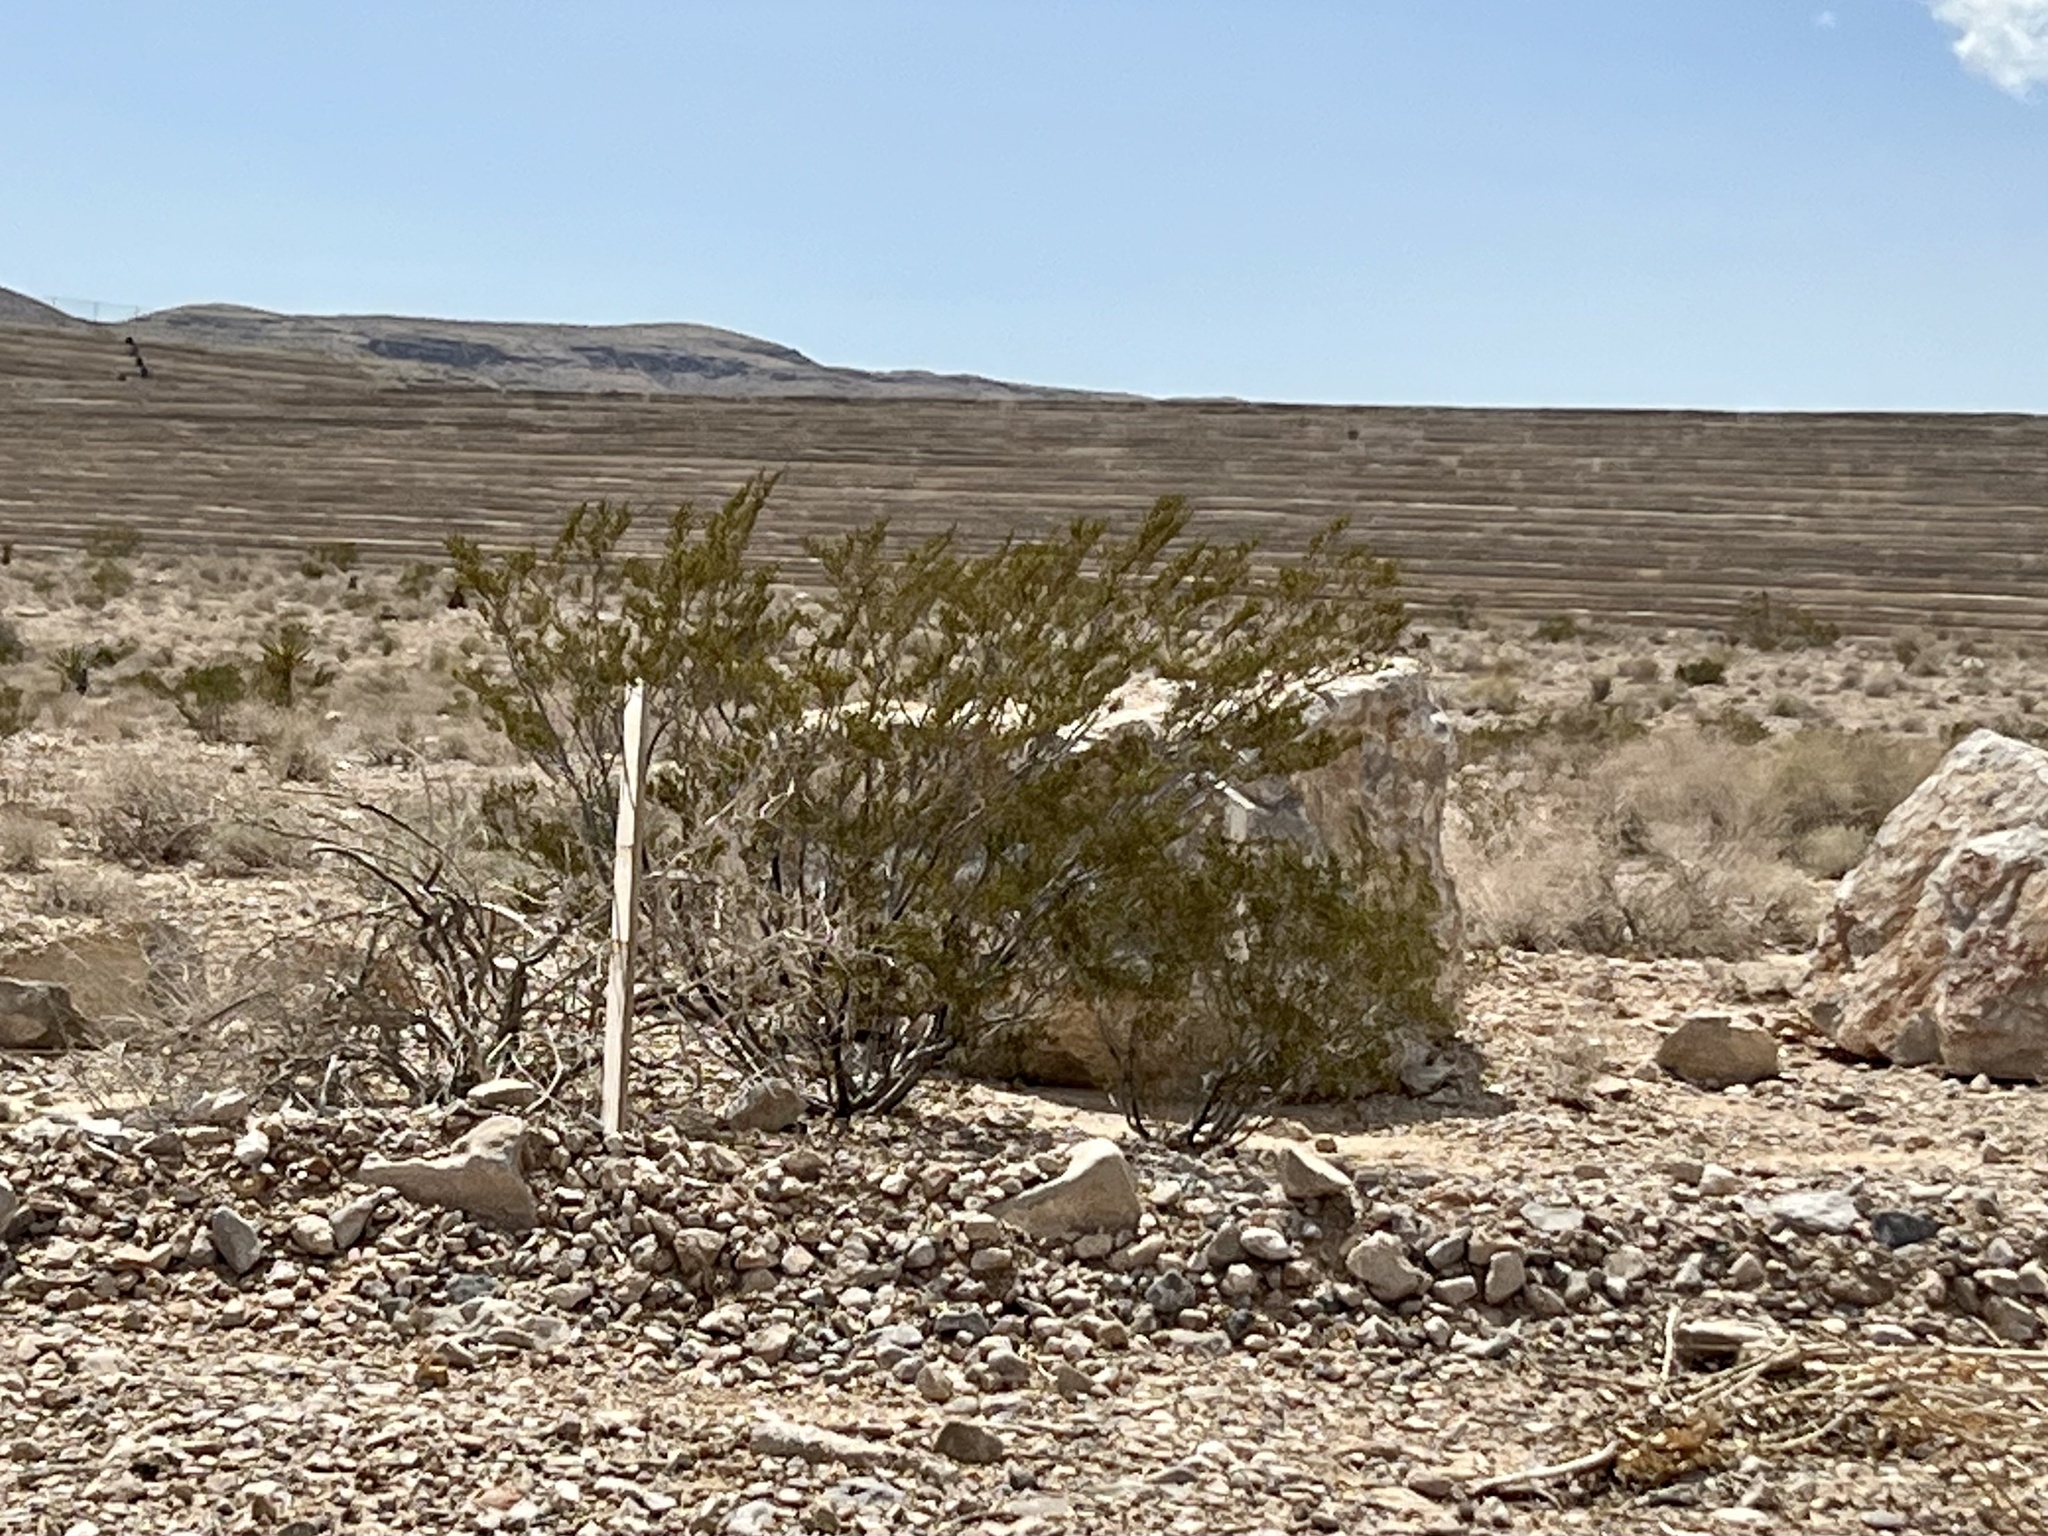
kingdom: Plantae
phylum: Tracheophyta
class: Magnoliopsida
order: Zygophyllales
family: Zygophyllaceae
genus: Larrea
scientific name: Larrea tridentata
